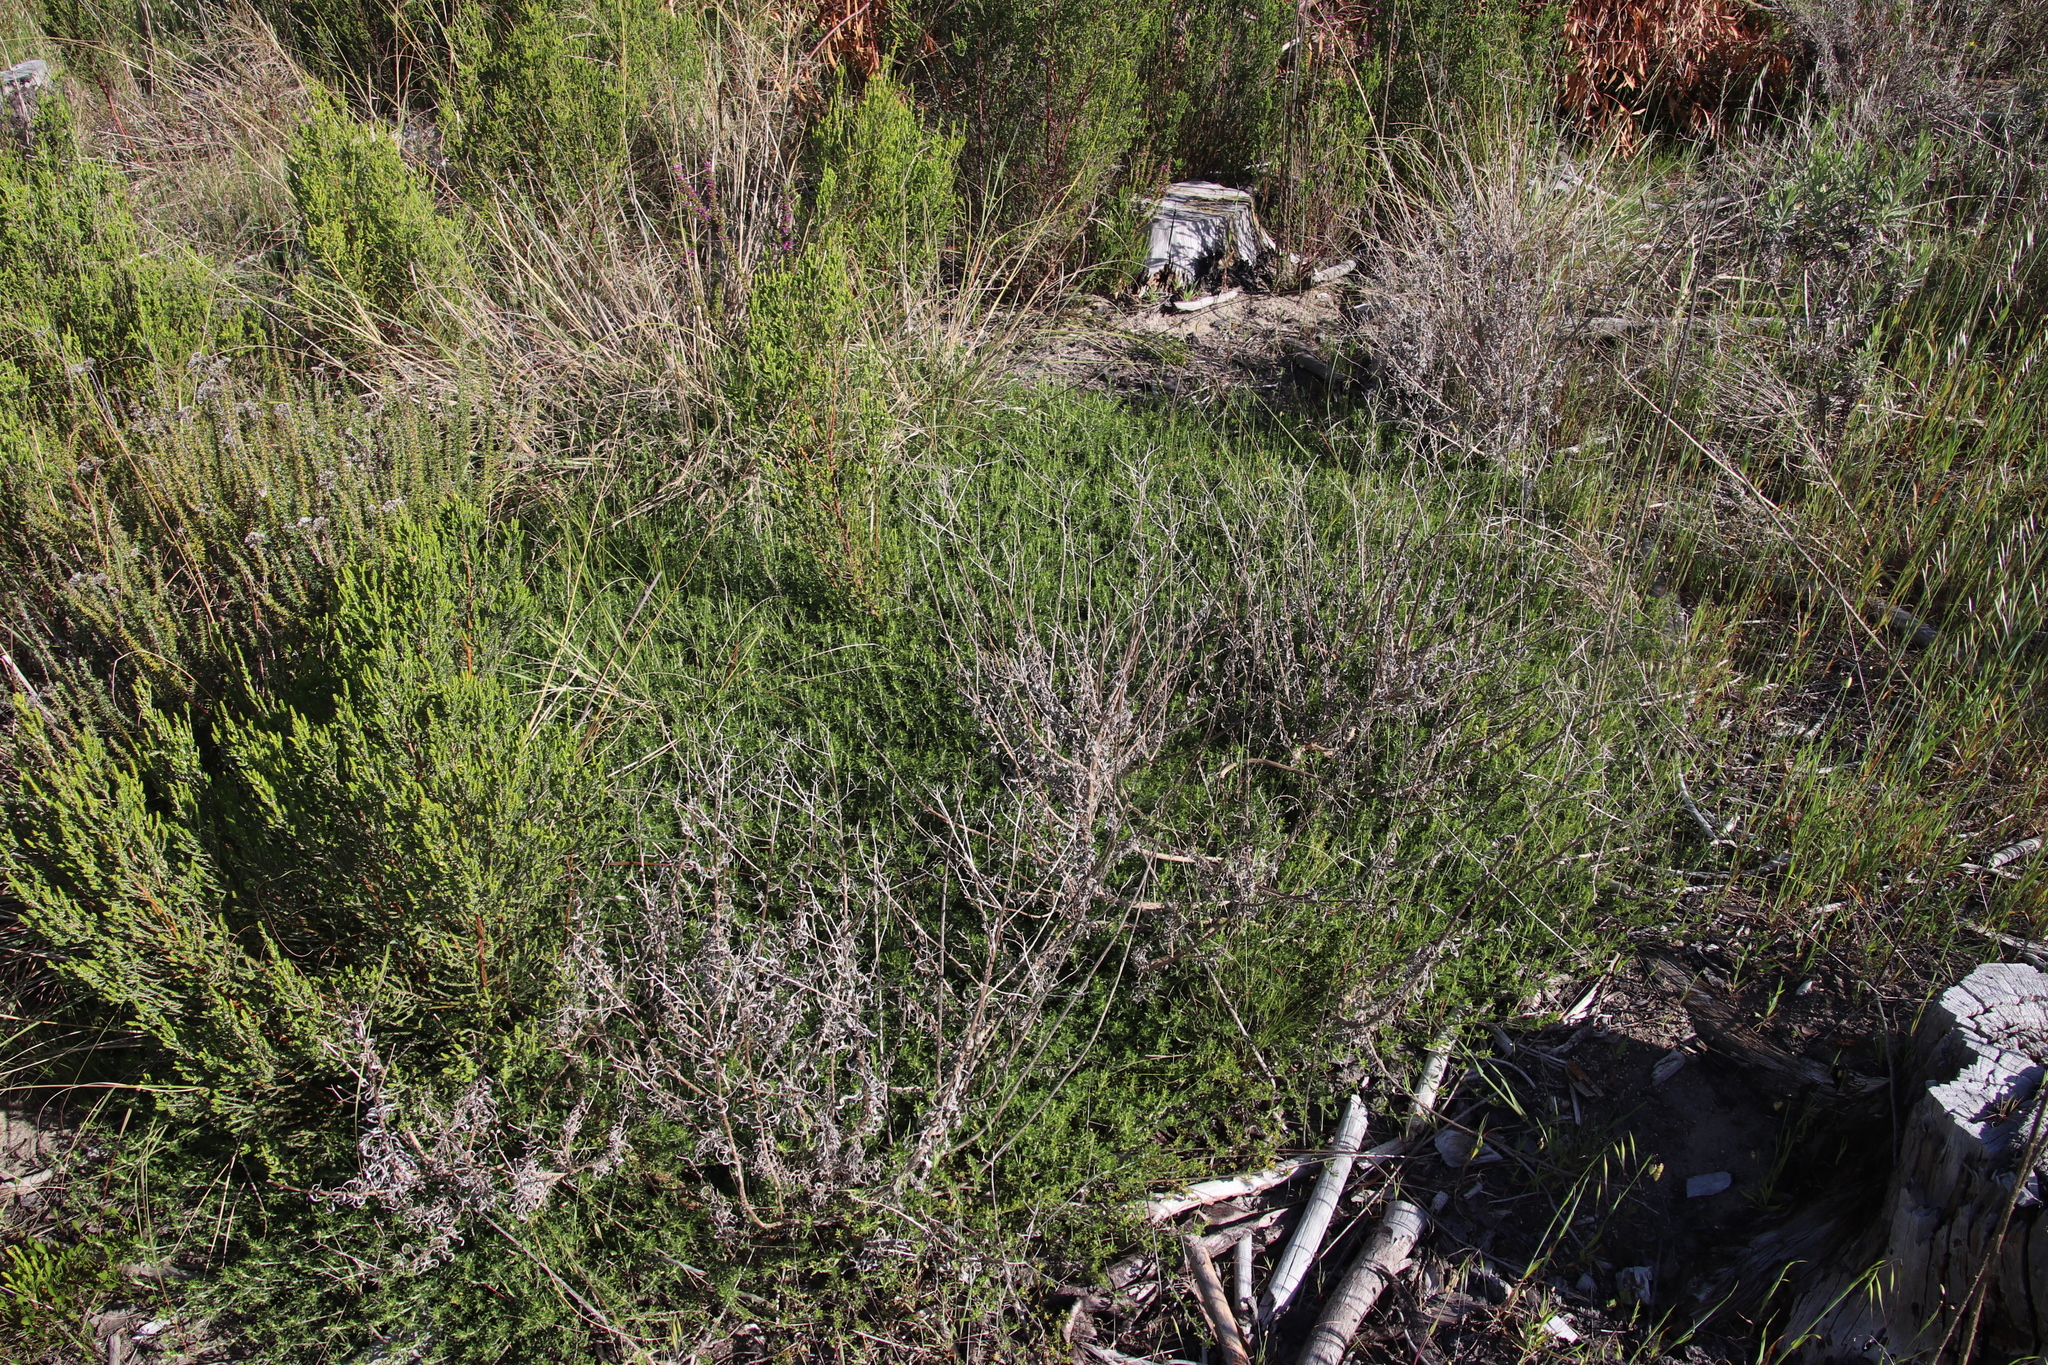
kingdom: Plantae
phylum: Tracheophyta
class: Magnoliopsida
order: Fabales
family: Fabaceae
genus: Psoralea
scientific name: Psoralea
